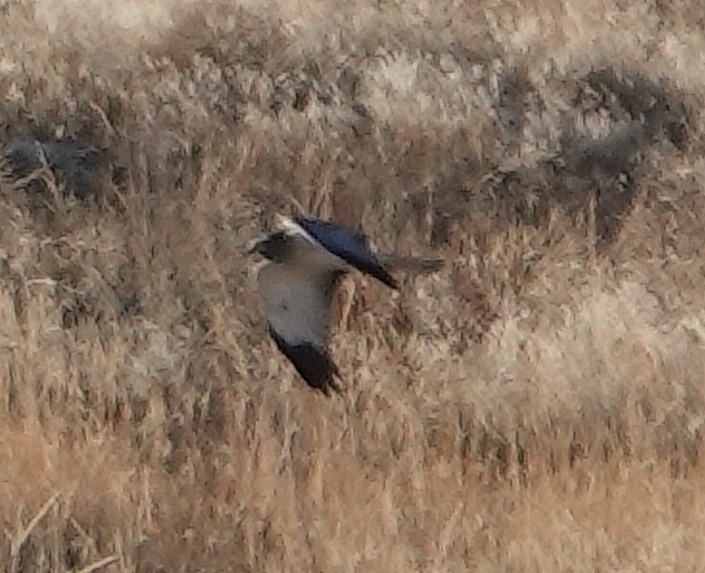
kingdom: Animalia
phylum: Chordata
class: Aves
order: Accipitriformes
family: Accipitridae
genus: Circus
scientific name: Circus cyaneus
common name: Hen harrier
